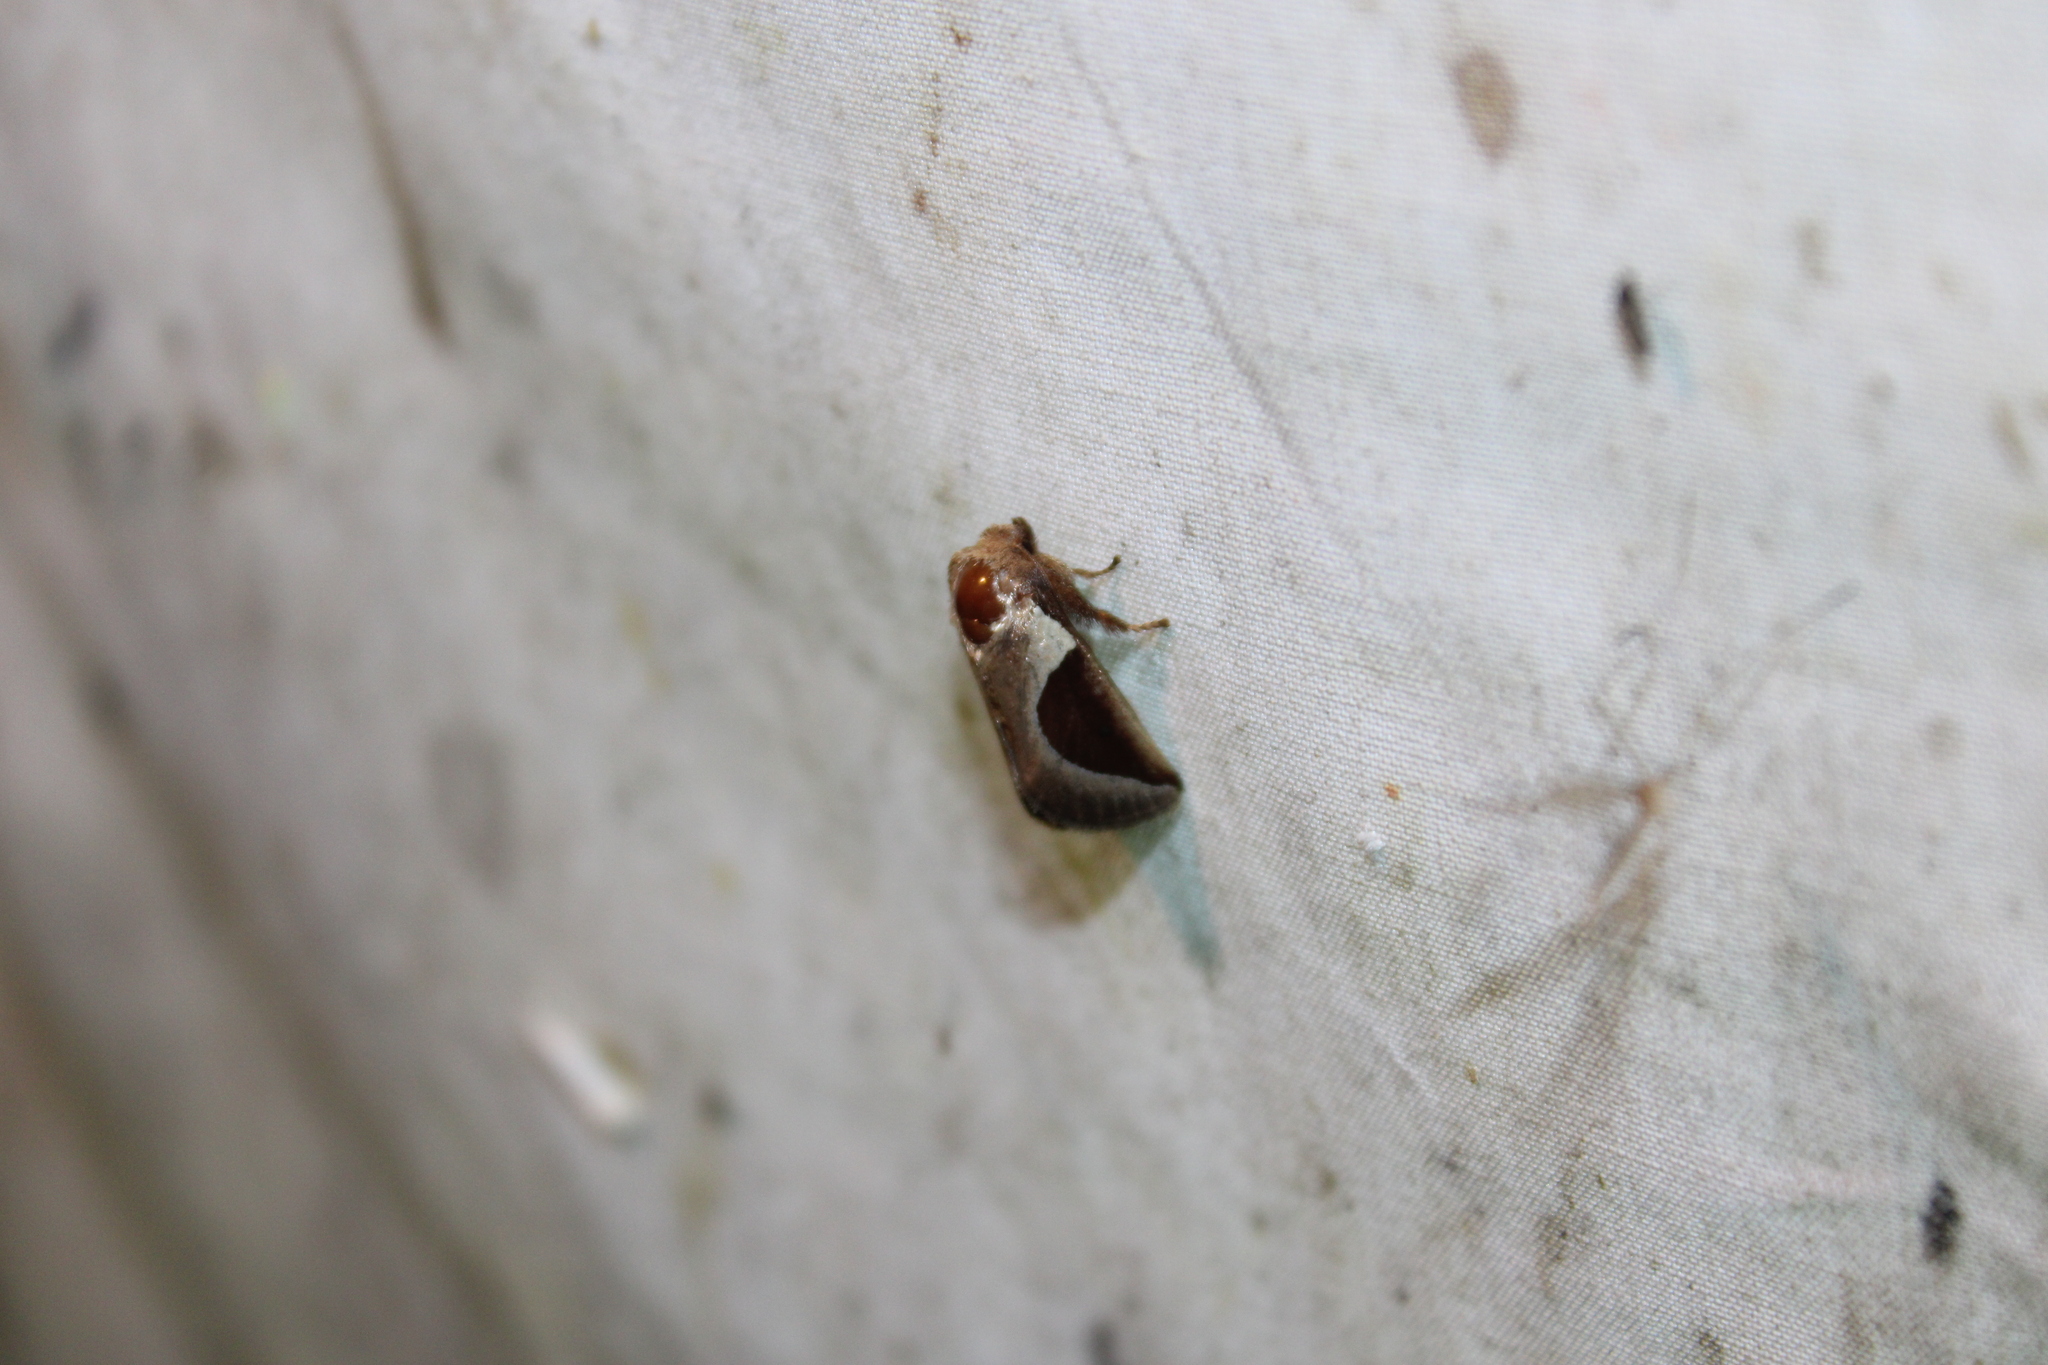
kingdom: Animalia
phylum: Arthropoda
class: Insecta
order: Lepidoptera
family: Limacodidae
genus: Prolimacodes
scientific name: Prolimacodes badia
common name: Skiff moth
